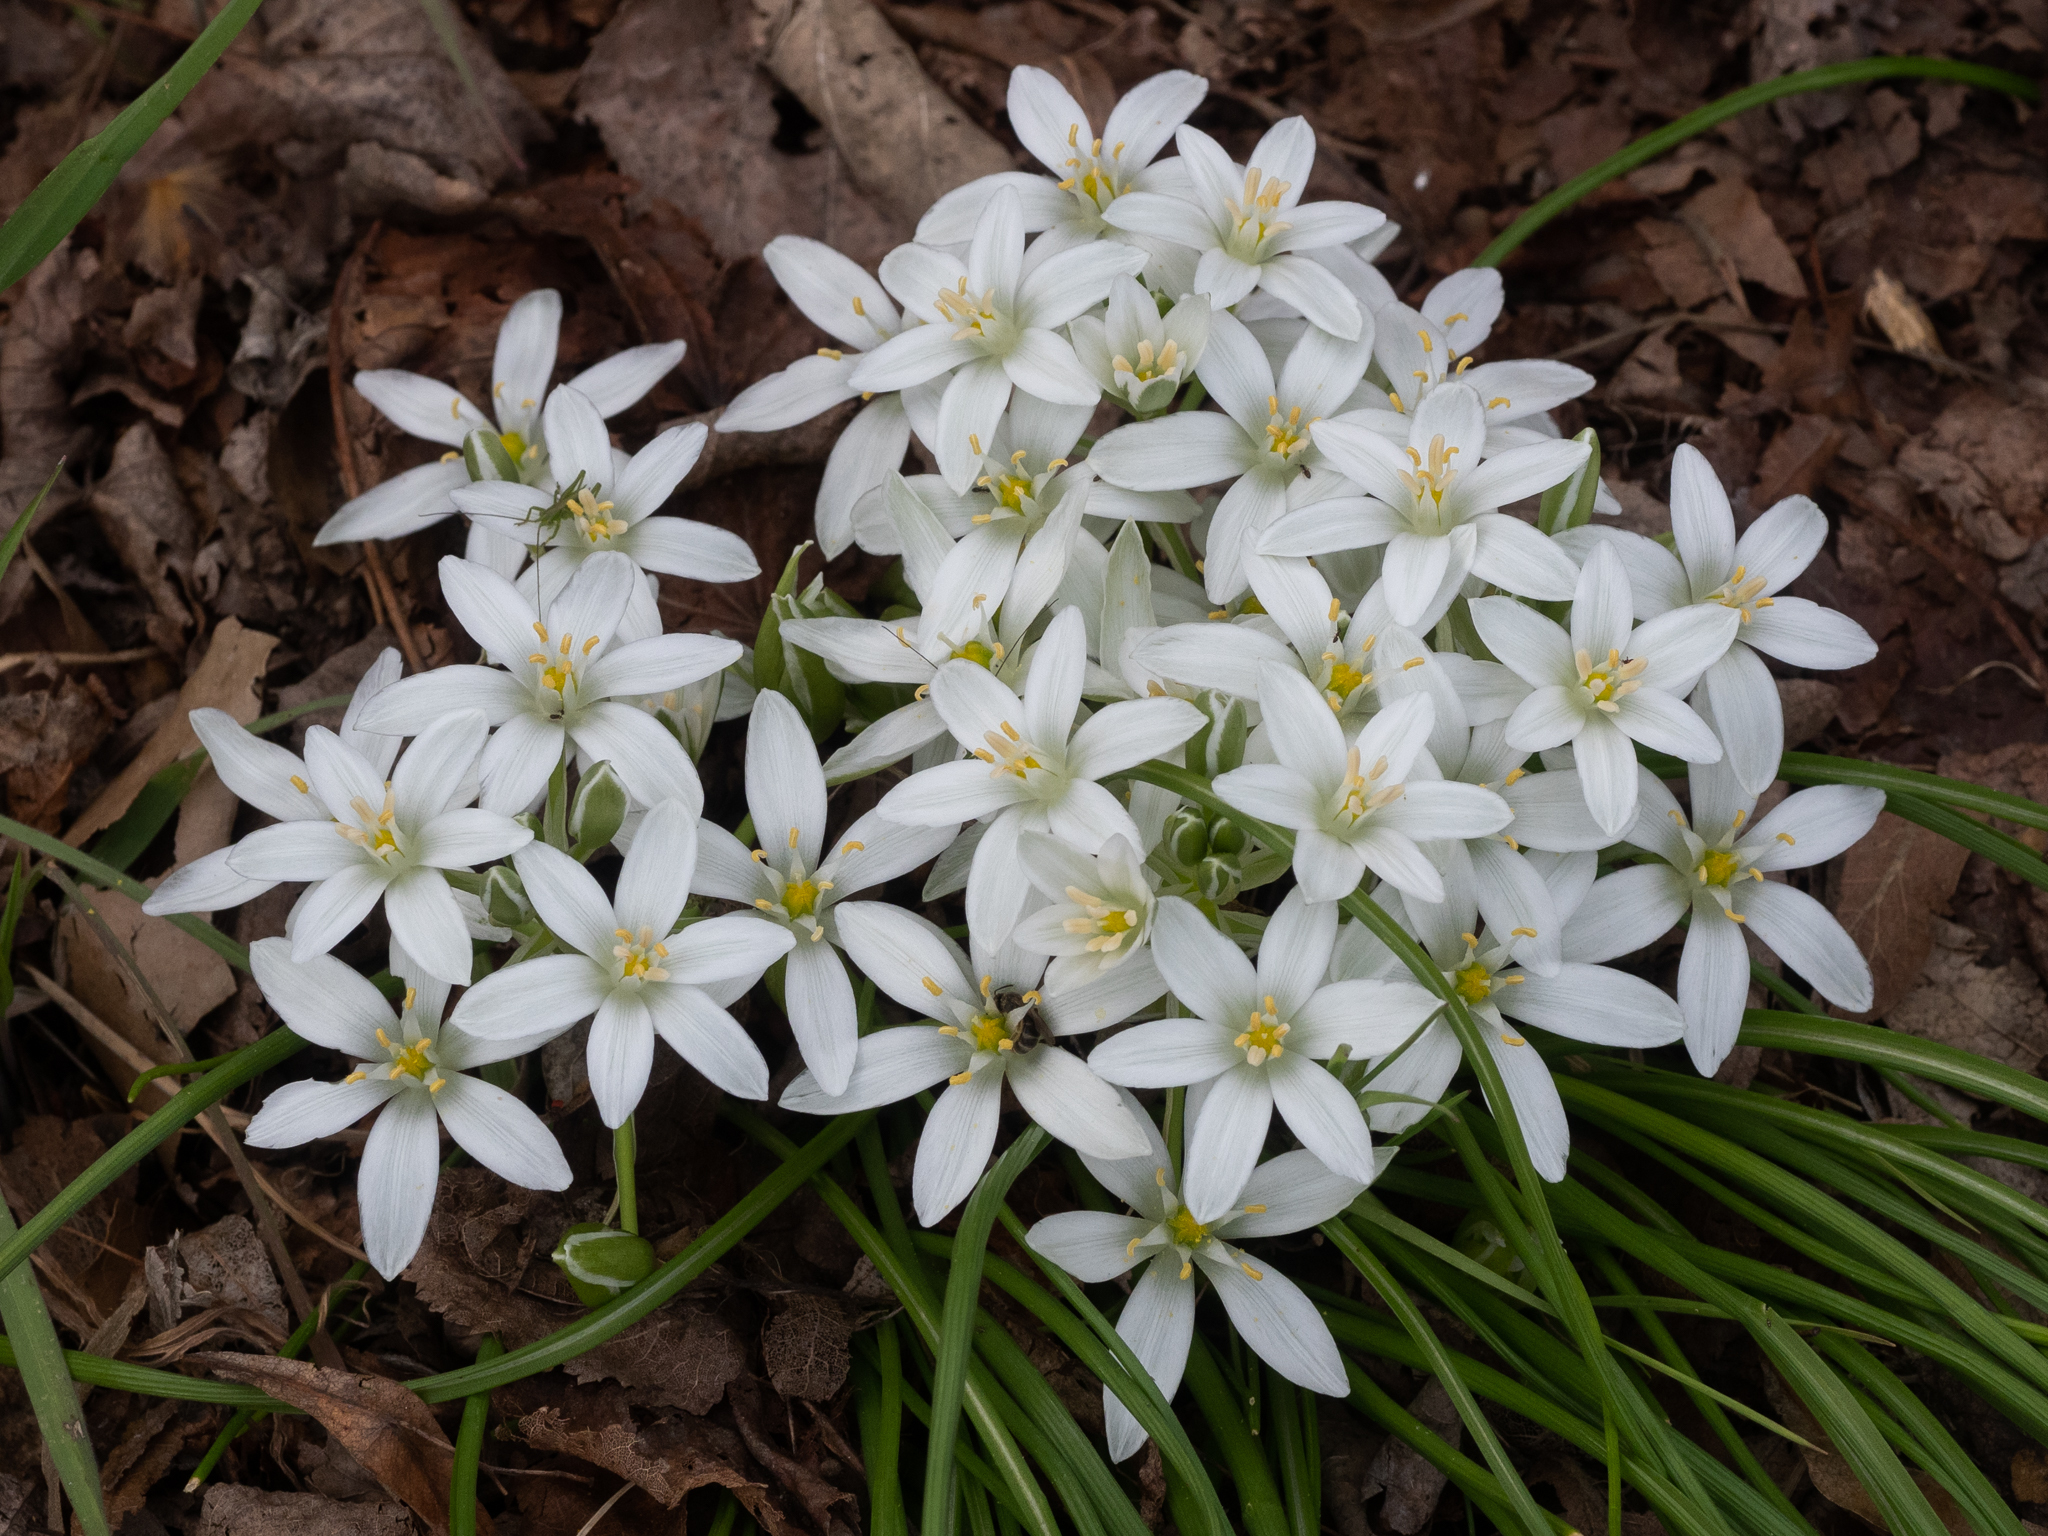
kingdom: Plantae
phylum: Tracheophyta
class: Liliopsida
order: Asparagales
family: Asparagaceae
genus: Ornithogalum
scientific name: Ornithogalum umbellatum
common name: Garden star-of-bethlehem
